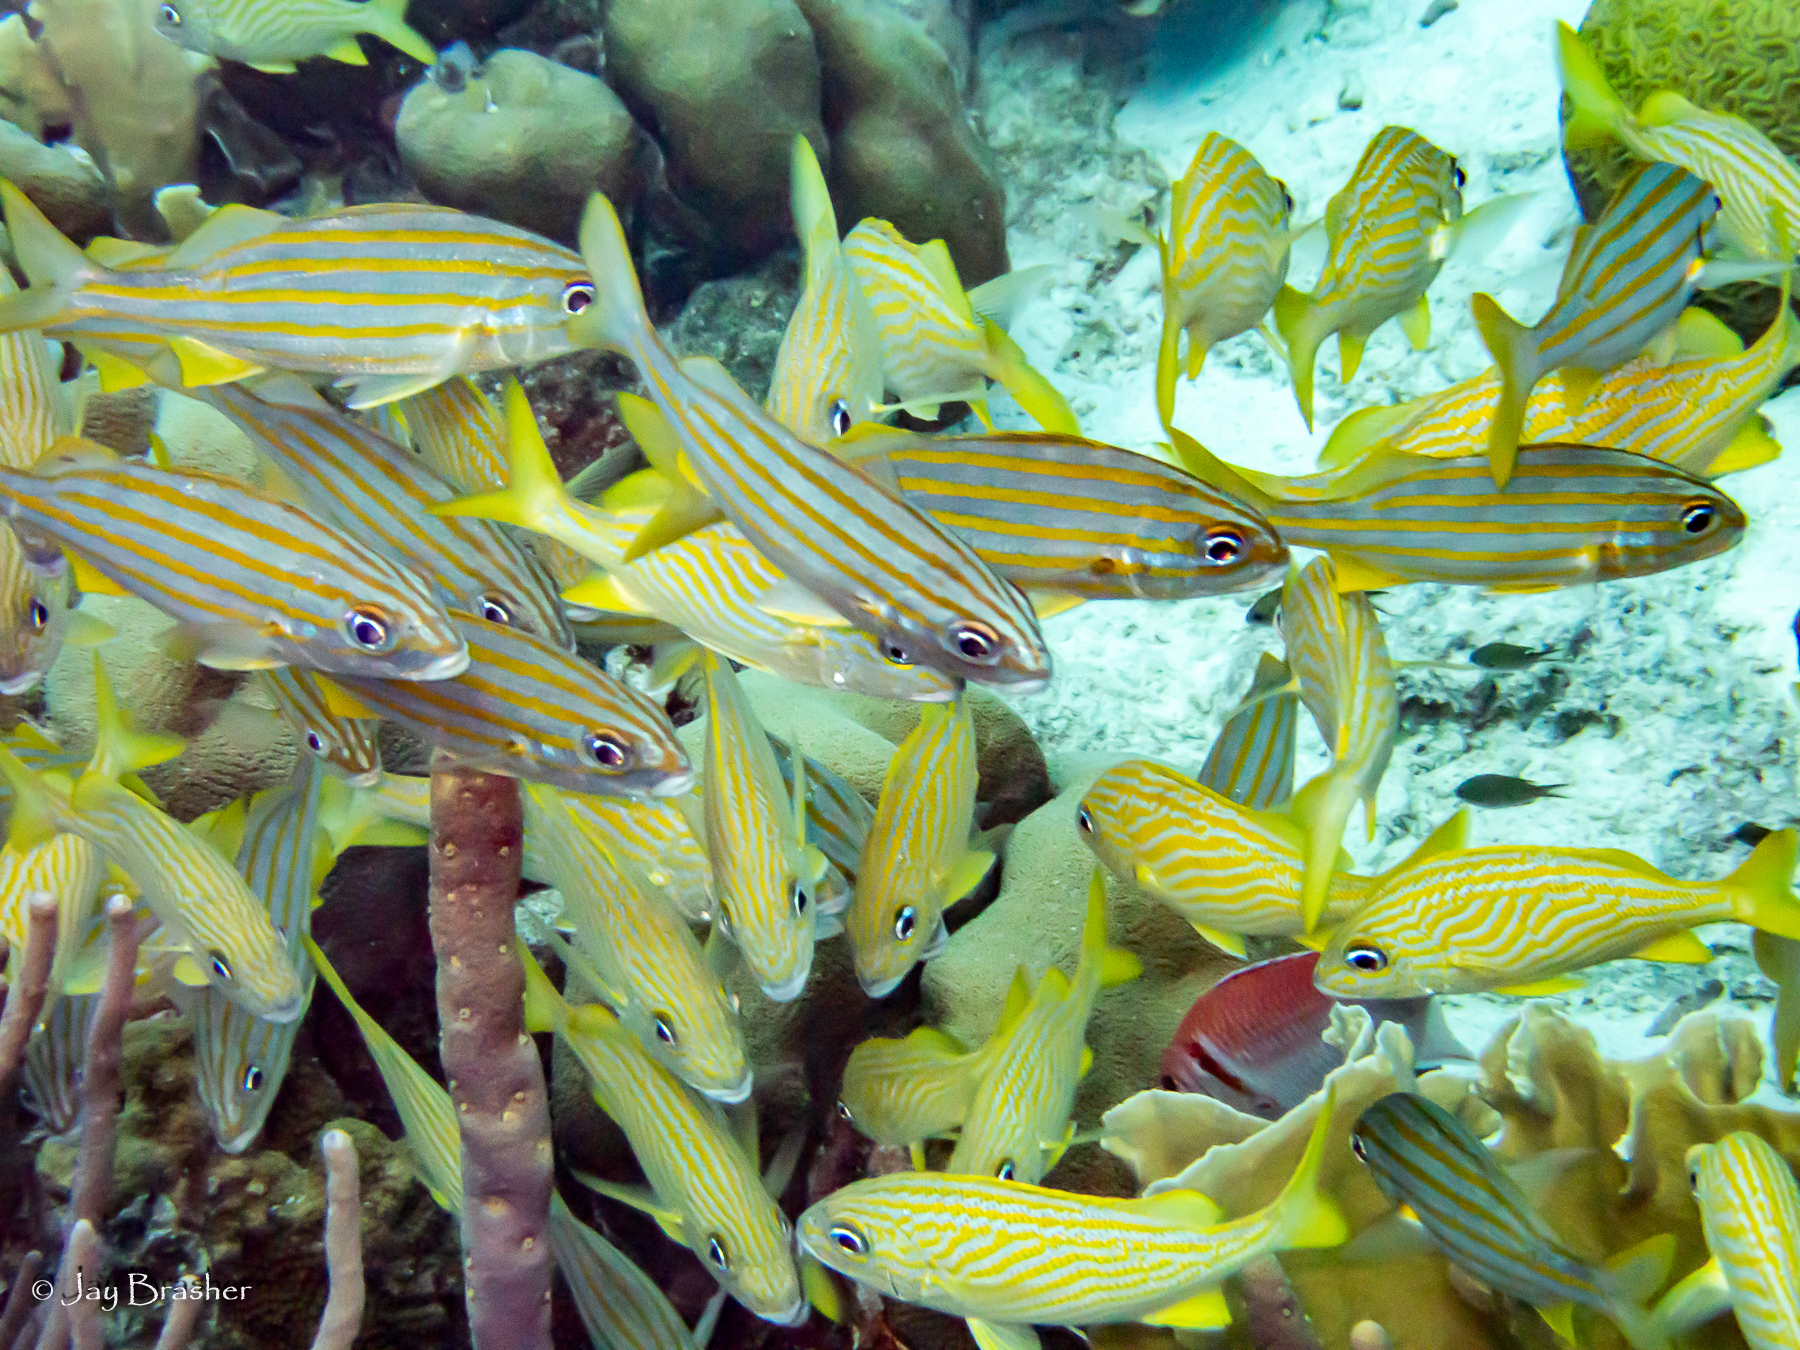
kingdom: Animalia
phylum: Chordata
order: Perciformes
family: Haemulidae
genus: Haemulon
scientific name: Haemulon flavolineatum
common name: French grunt
